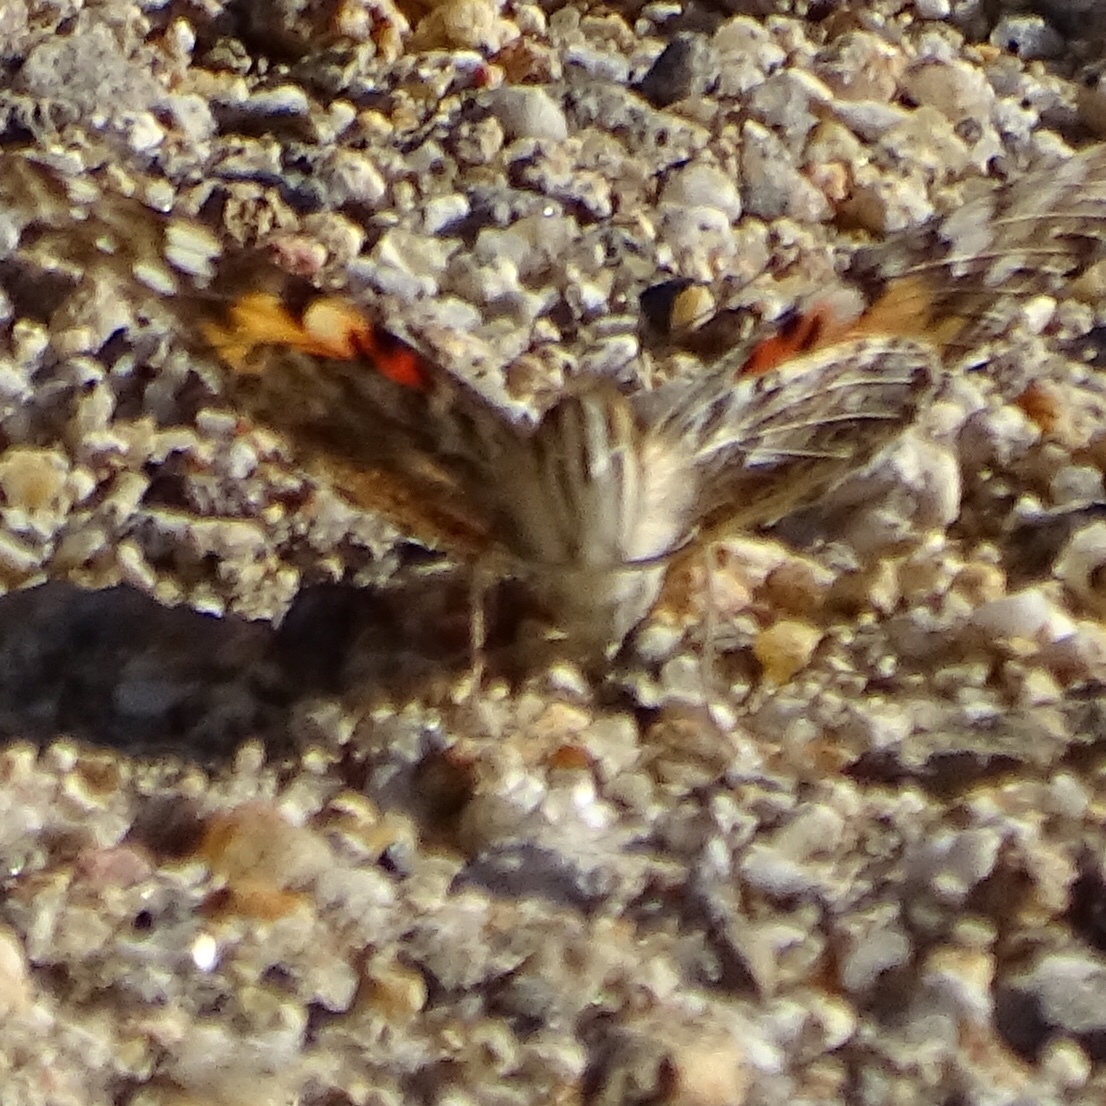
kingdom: Animalia
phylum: Arthropoda
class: Insecta
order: Lepidoptera
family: Nymphalidae
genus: Vanessa
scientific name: Vanessa cardui
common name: Painted lady
